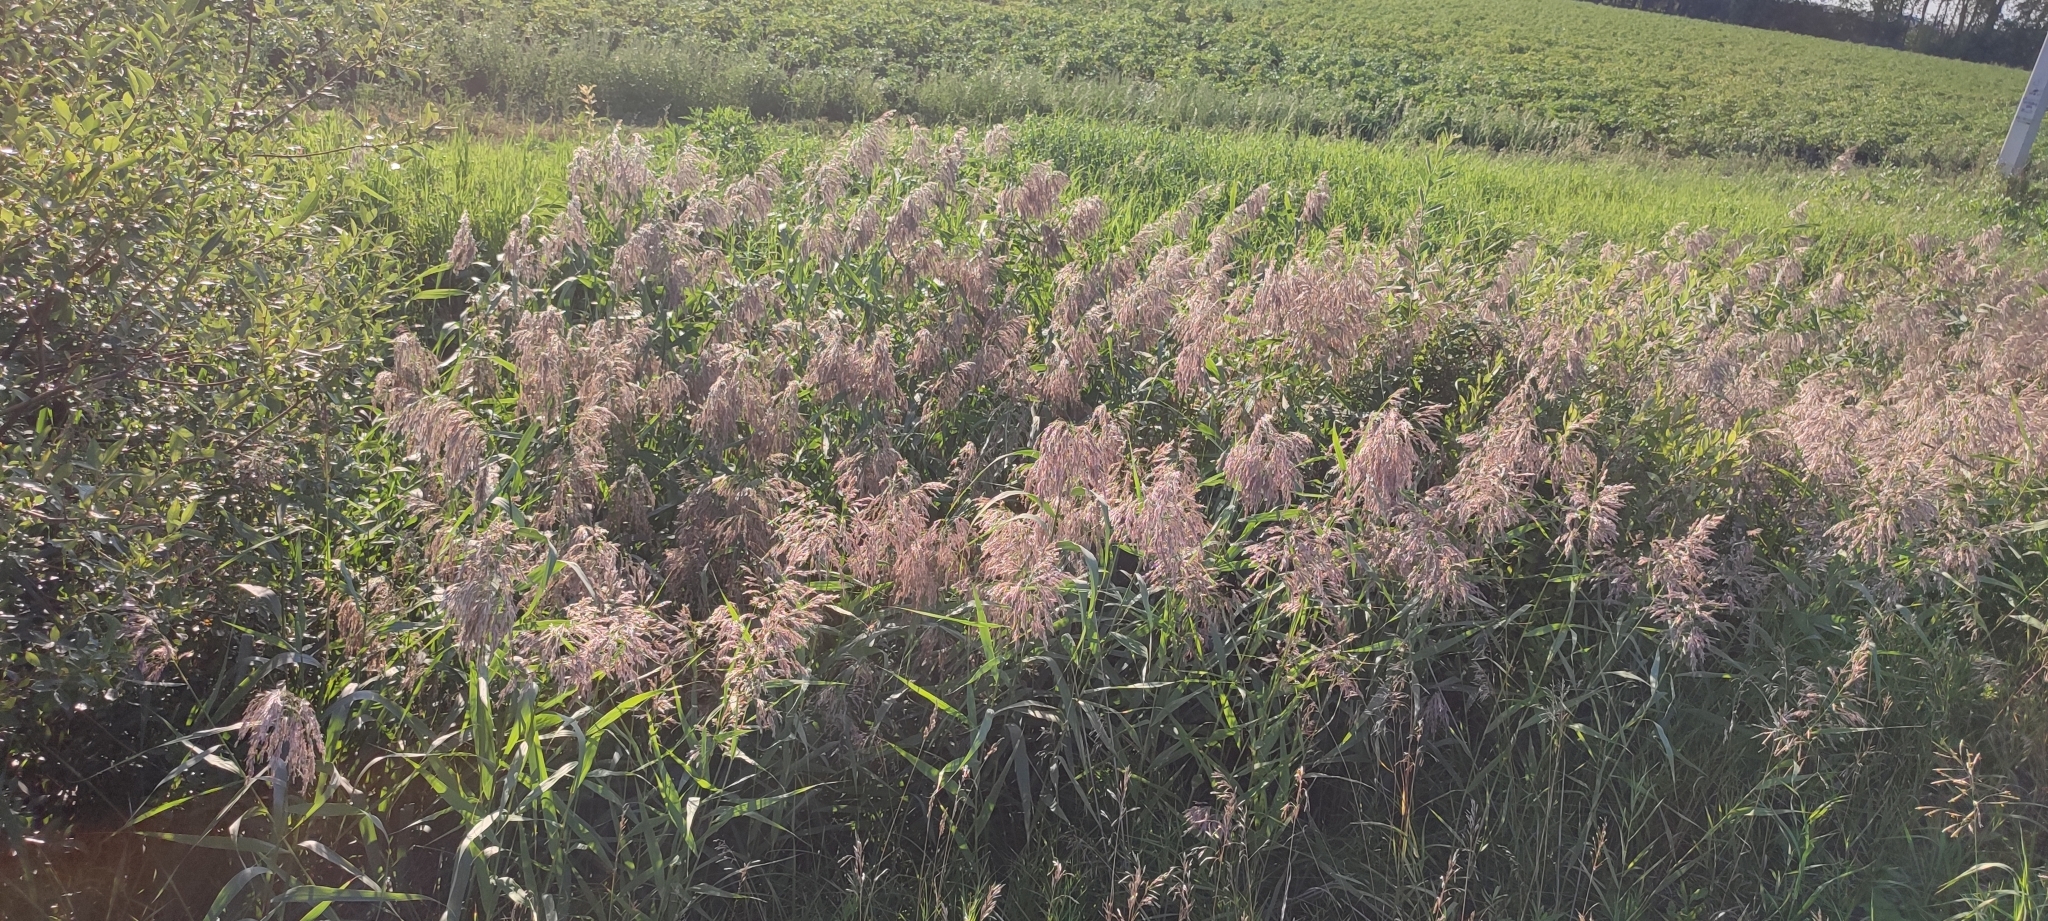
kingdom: Plantae
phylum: Tracheophyta
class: Liliopsida
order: Poales
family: Poaceae
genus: Phragmites
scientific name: Phragmites australis
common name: Common reed
